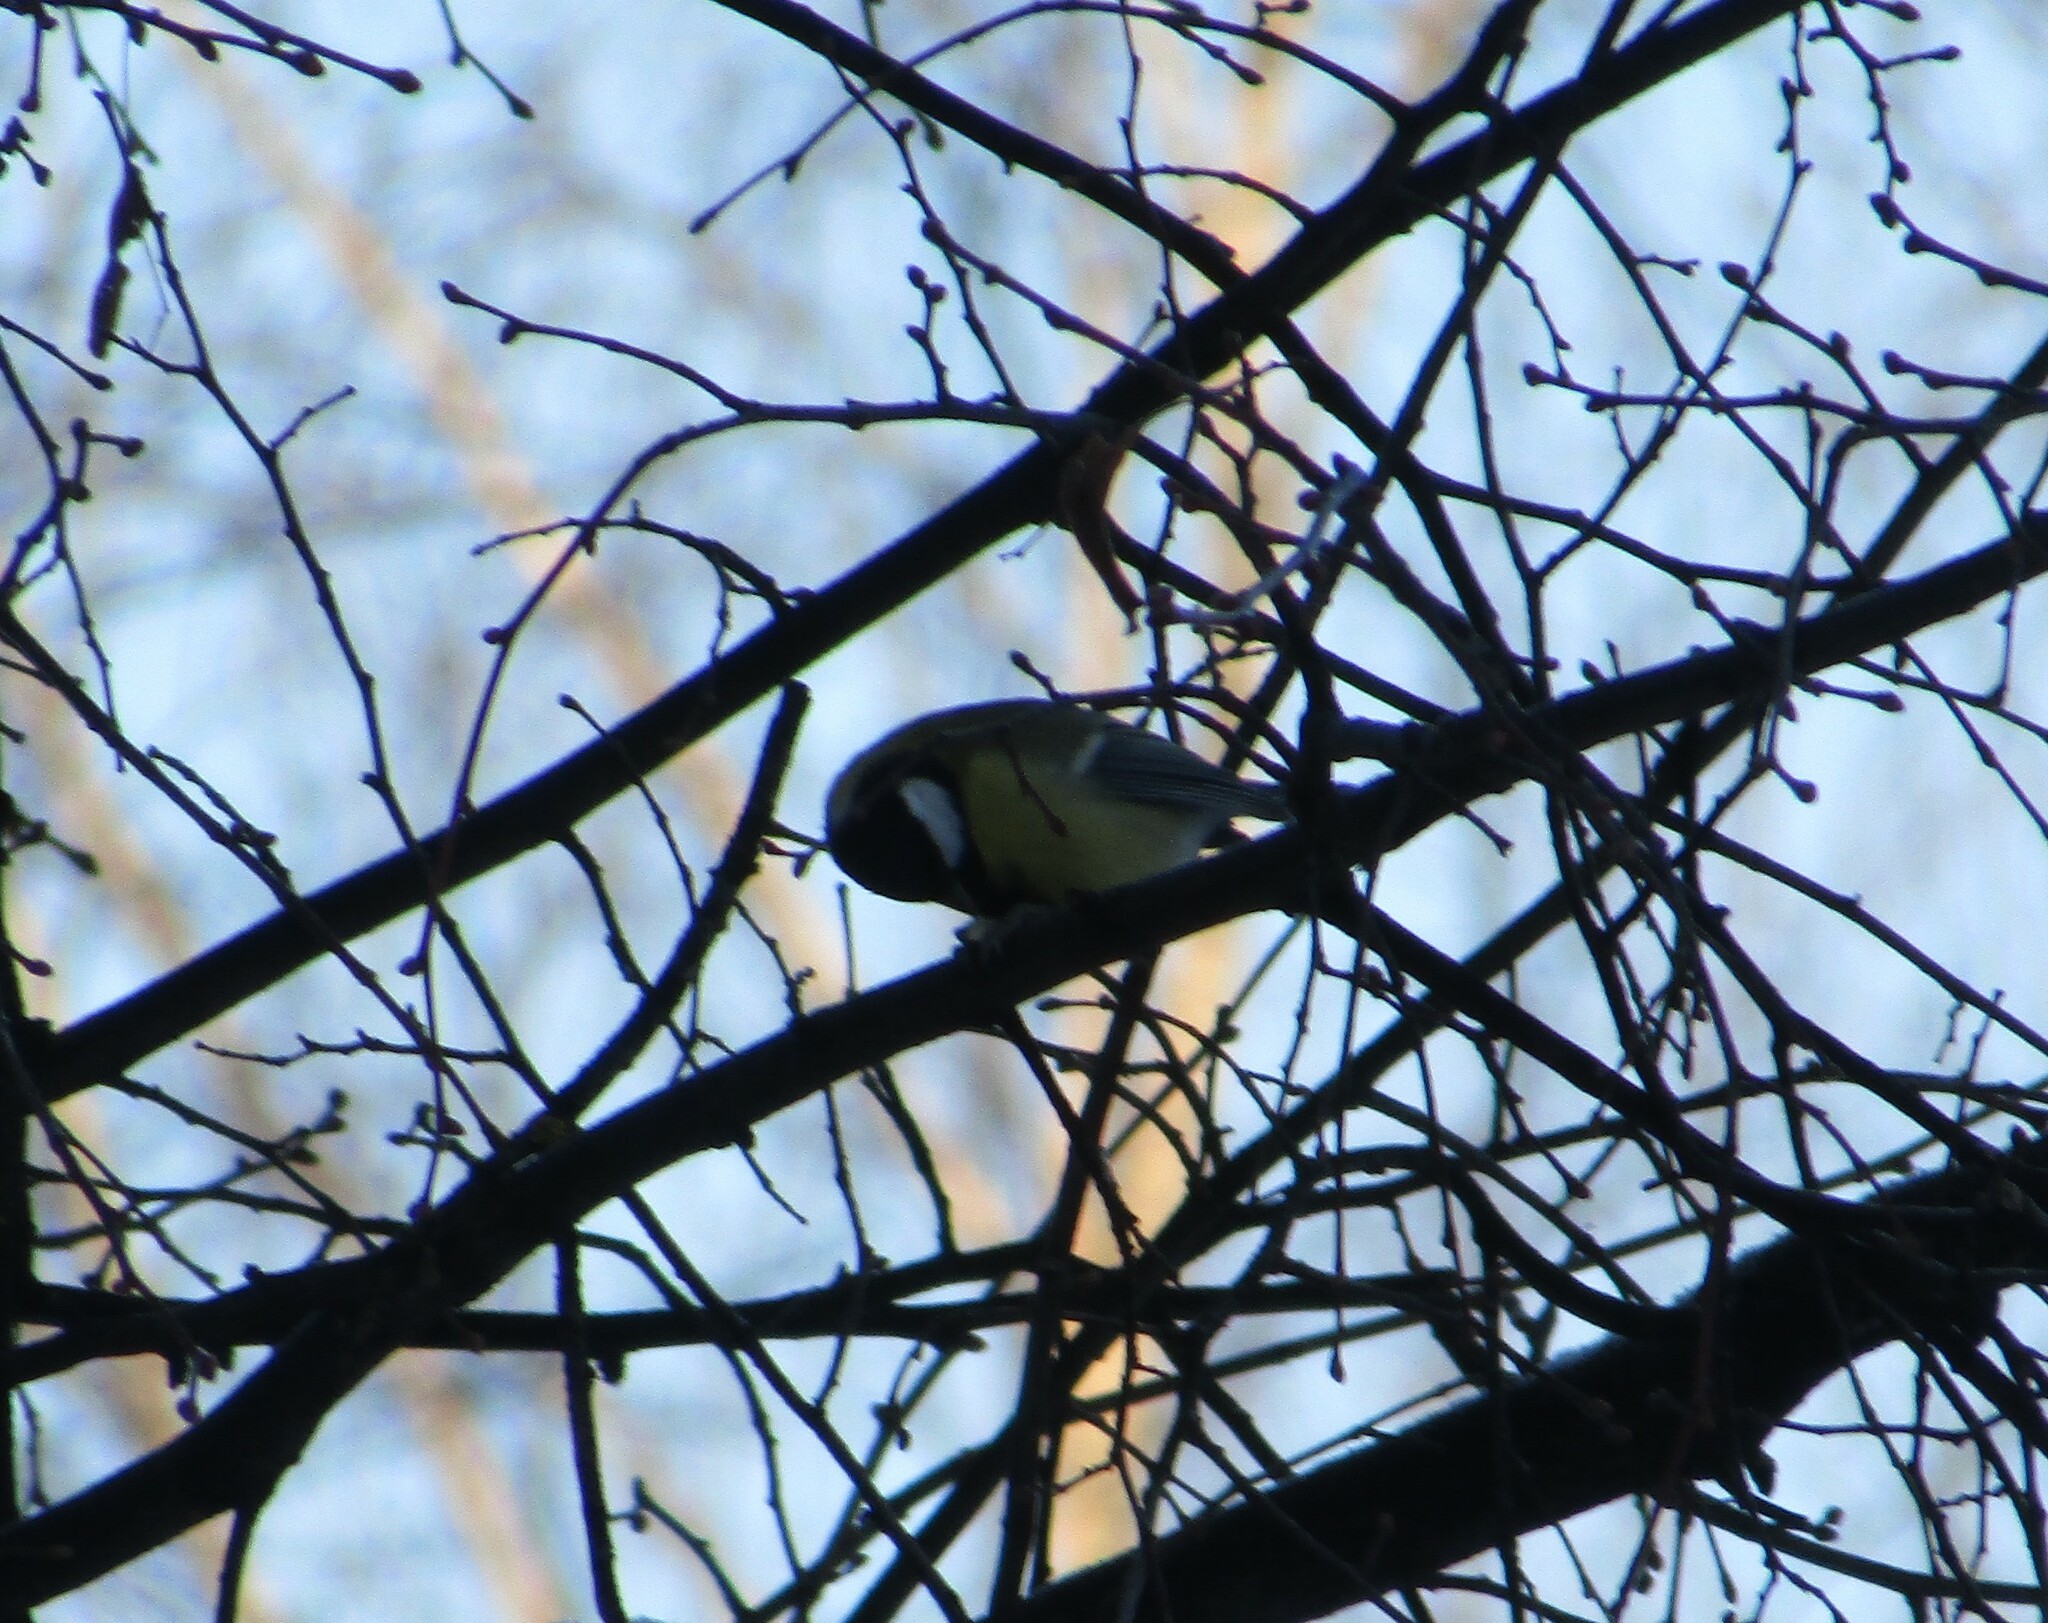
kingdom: Animalia
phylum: Chordata
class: Aves
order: Passeriformes
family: Paridae
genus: Parus
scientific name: Parus major
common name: Great tit
